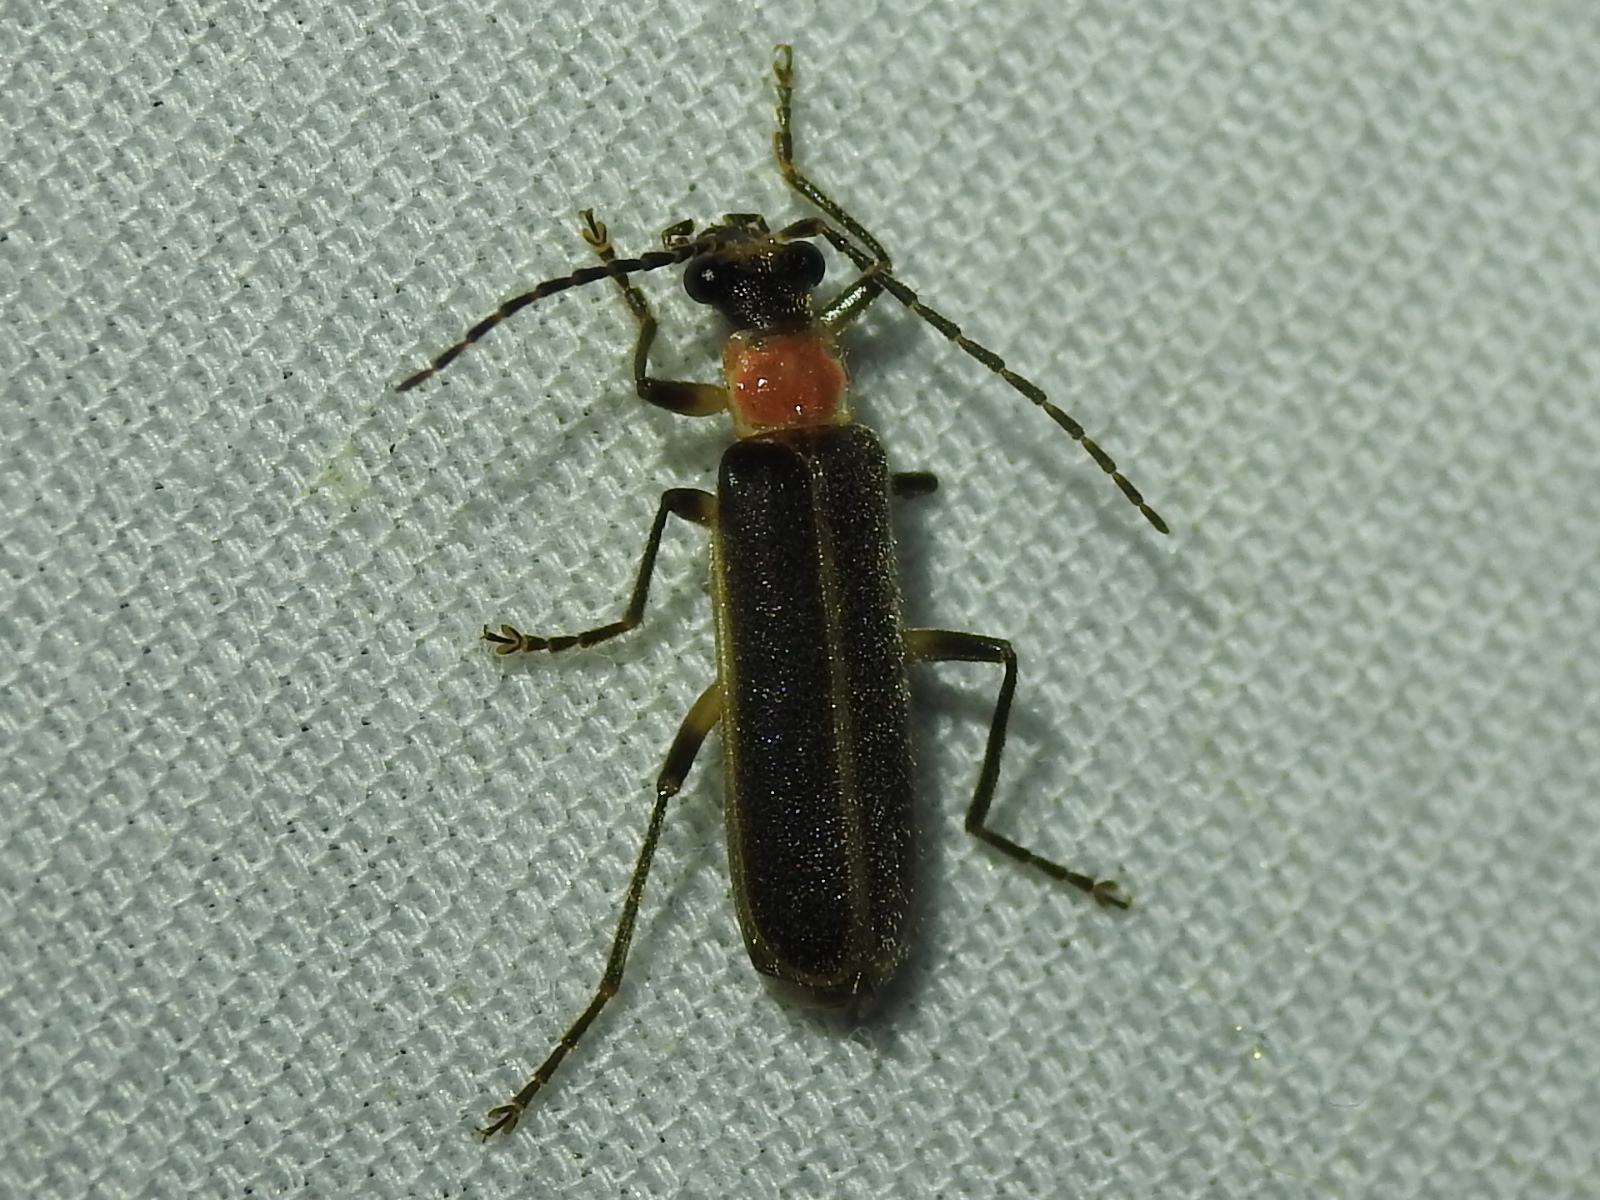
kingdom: Animalia
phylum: Arthropoda
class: Insecta
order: Coleoptera
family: Cantharidae
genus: Podabrus
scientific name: Podabrus quadratus
